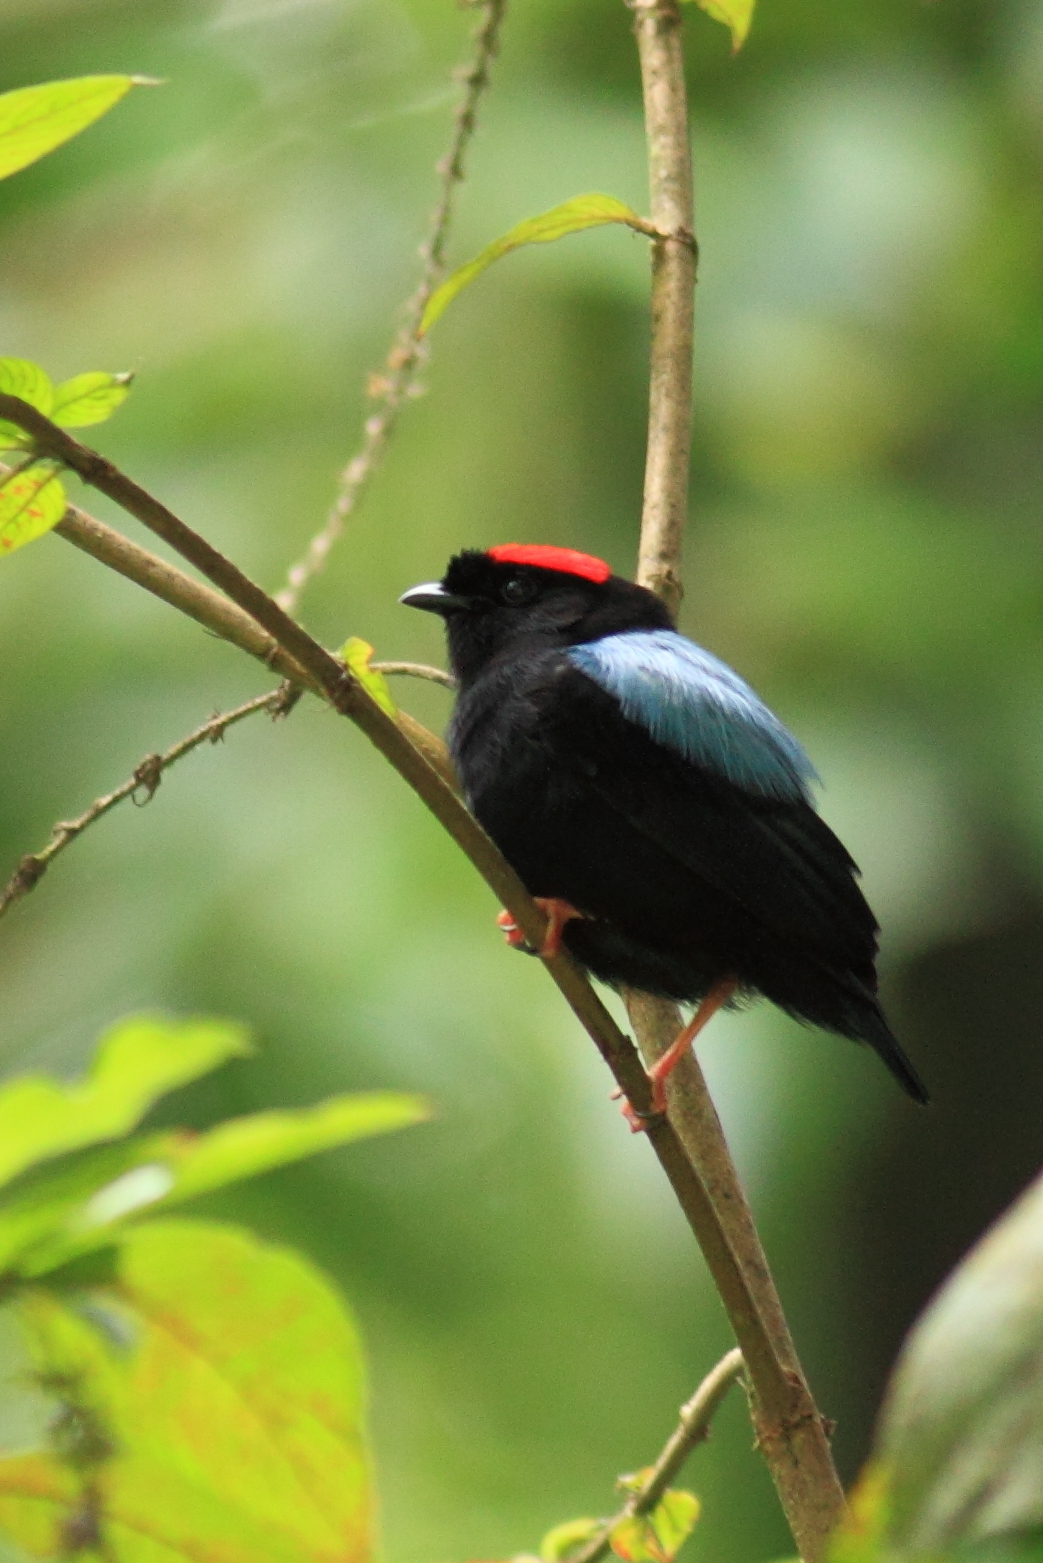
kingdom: Animalia
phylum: Chordata
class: Aves
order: Passeriformes
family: Pipridae
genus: Chiroxiphia
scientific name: Chiroxiphia pareola
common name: Blue-backed manakin
